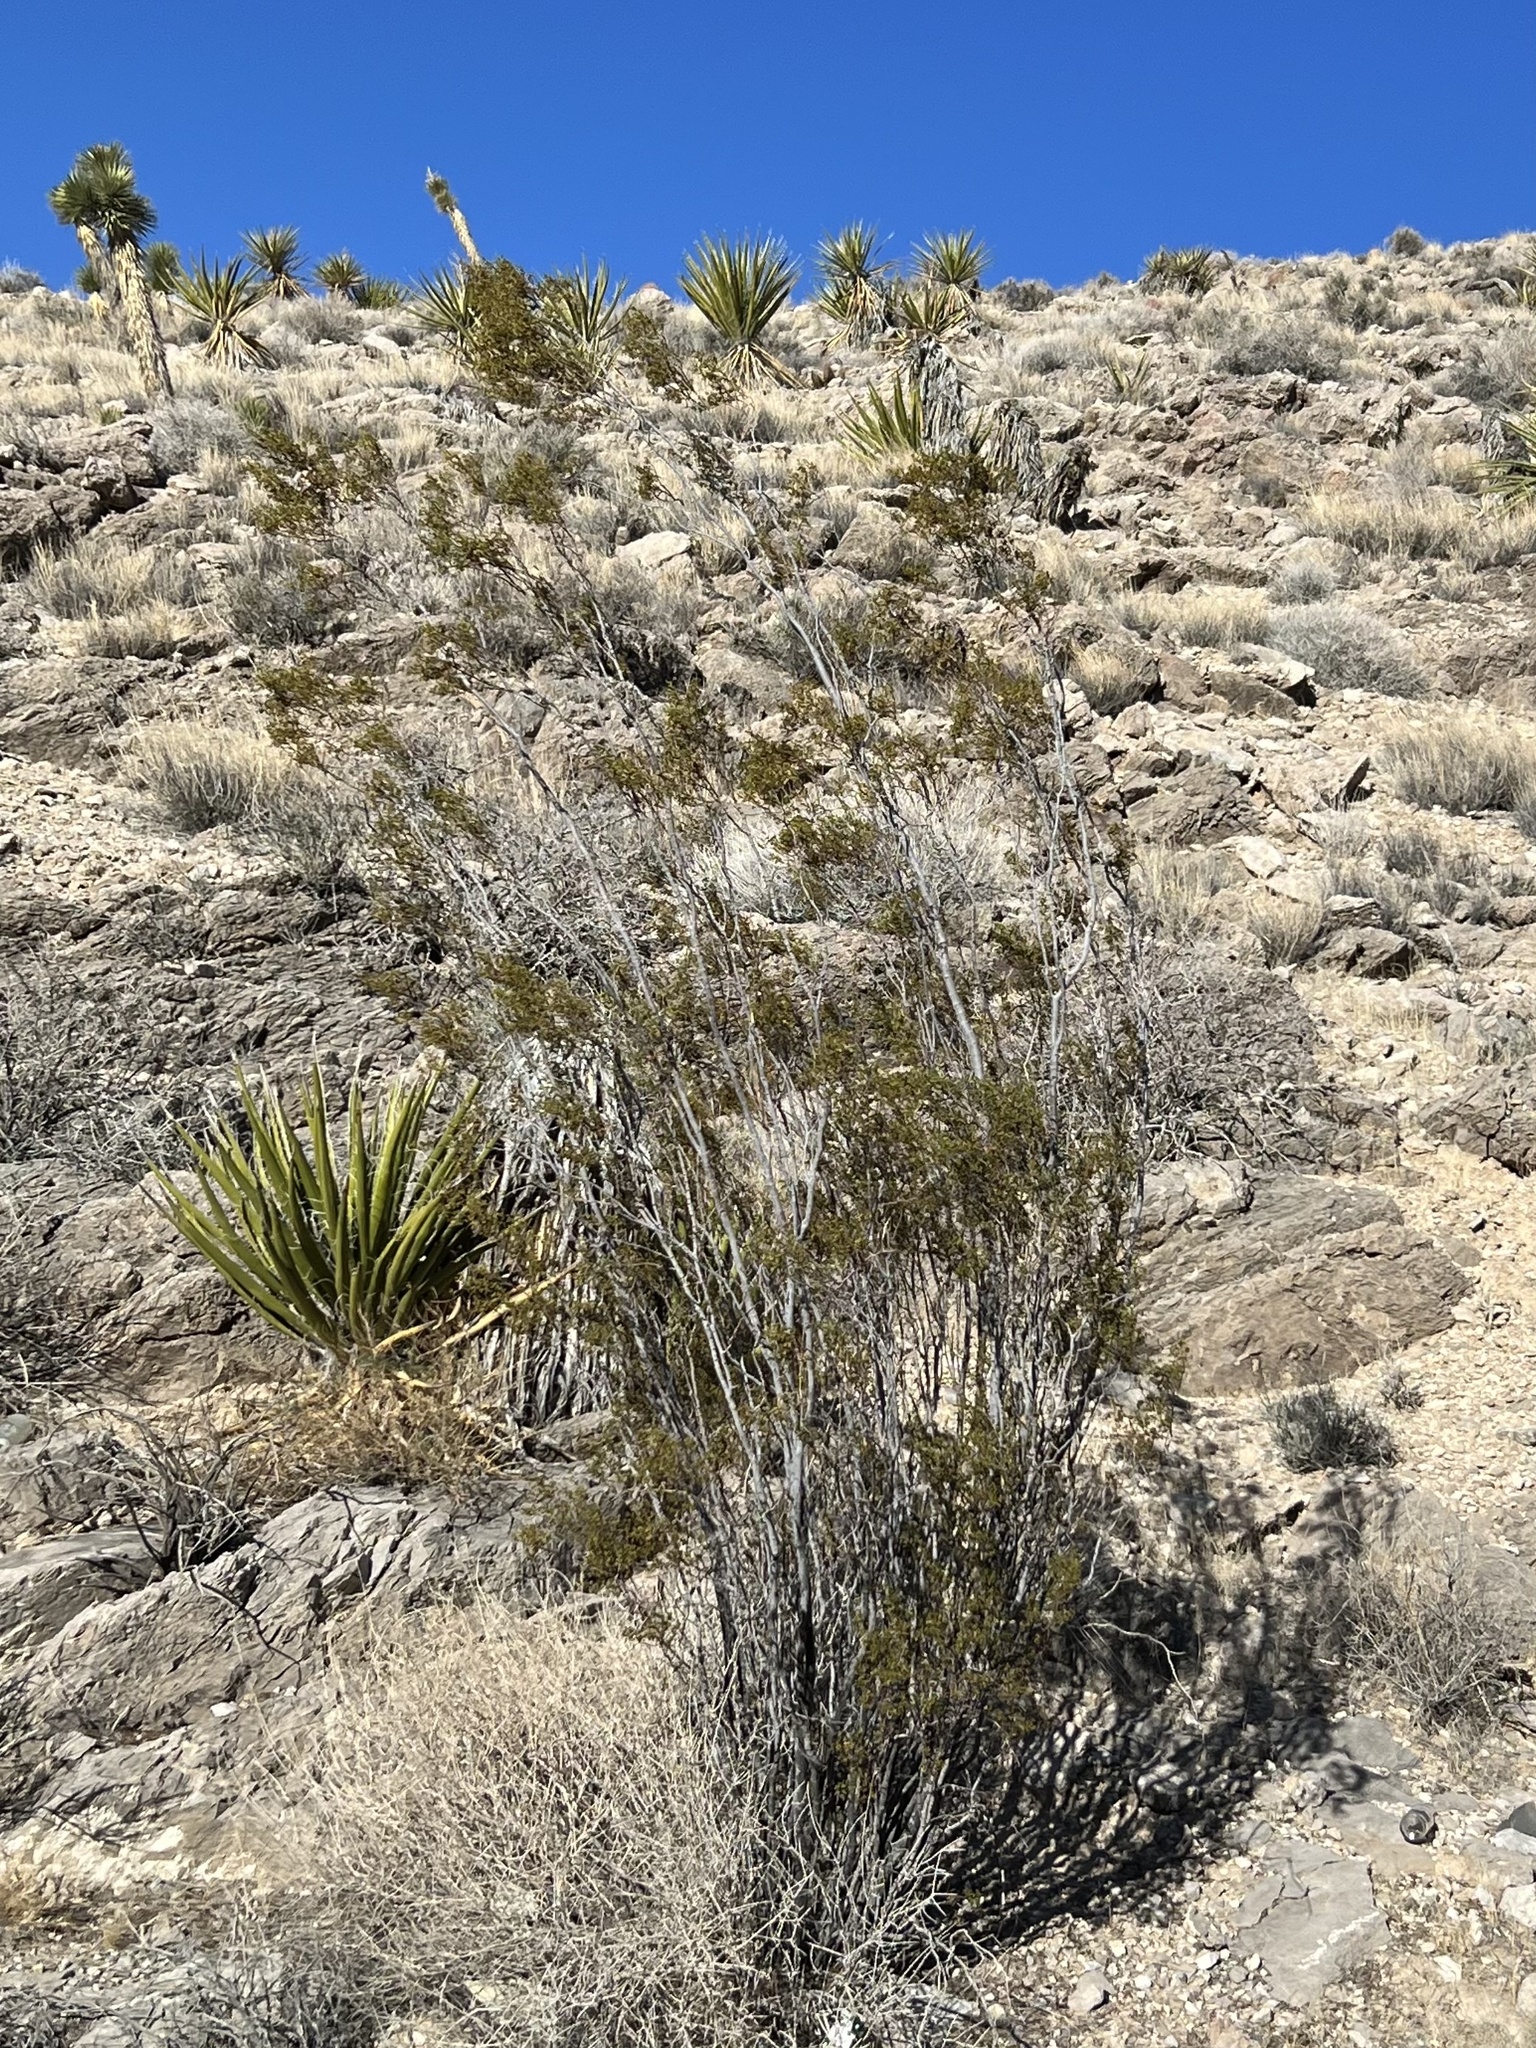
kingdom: Plantae
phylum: Tracheophyta
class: Magnoliopsida
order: Zygophyllales
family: Zygophyllaceae
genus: Larrea
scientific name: Larrea tridentata
